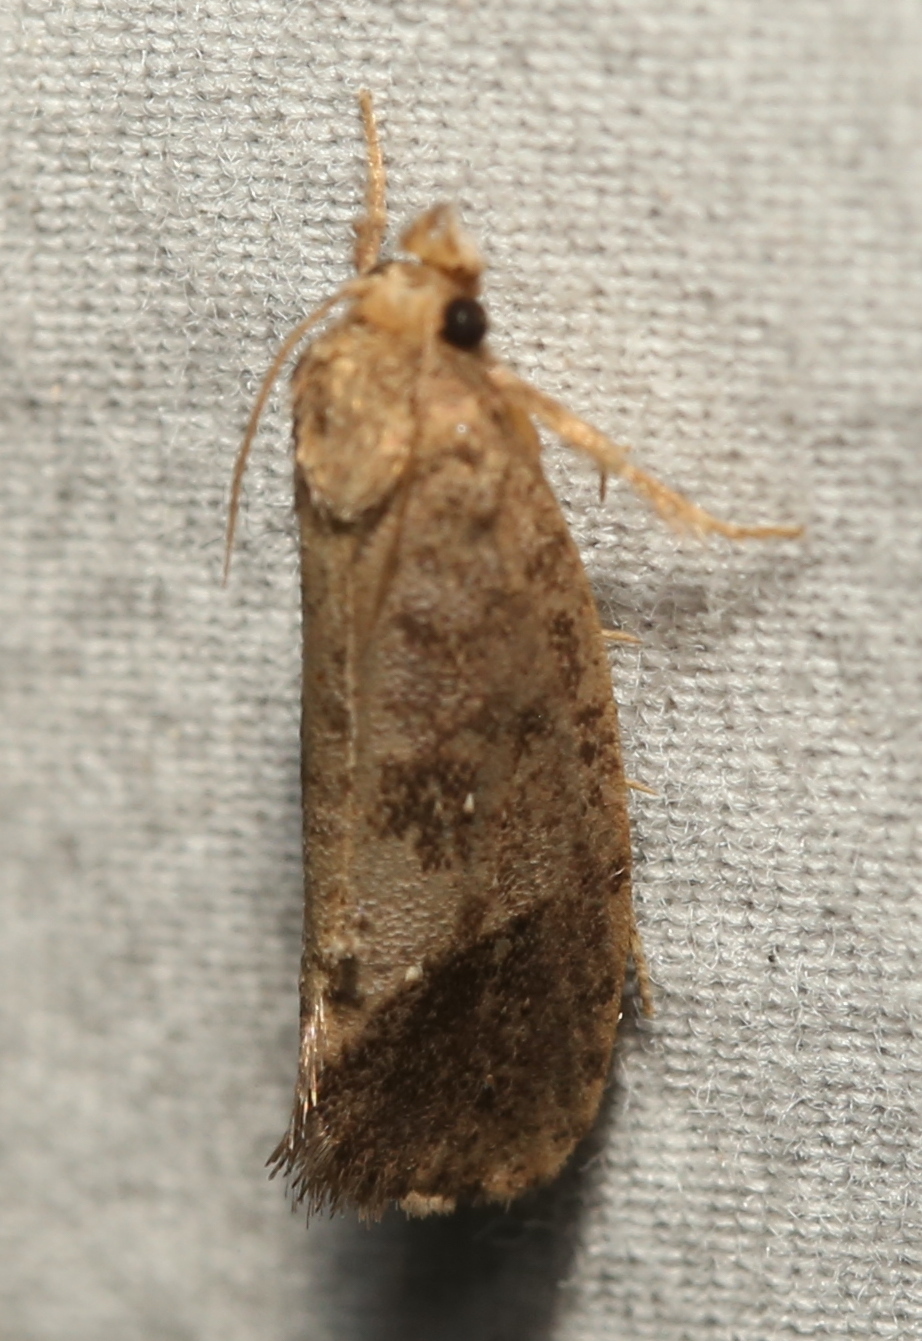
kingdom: Animalia
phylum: Arthropoda
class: Insecta
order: Lepidoptera
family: Tineidae
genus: Acrolophus
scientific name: Acrolophus texanella
